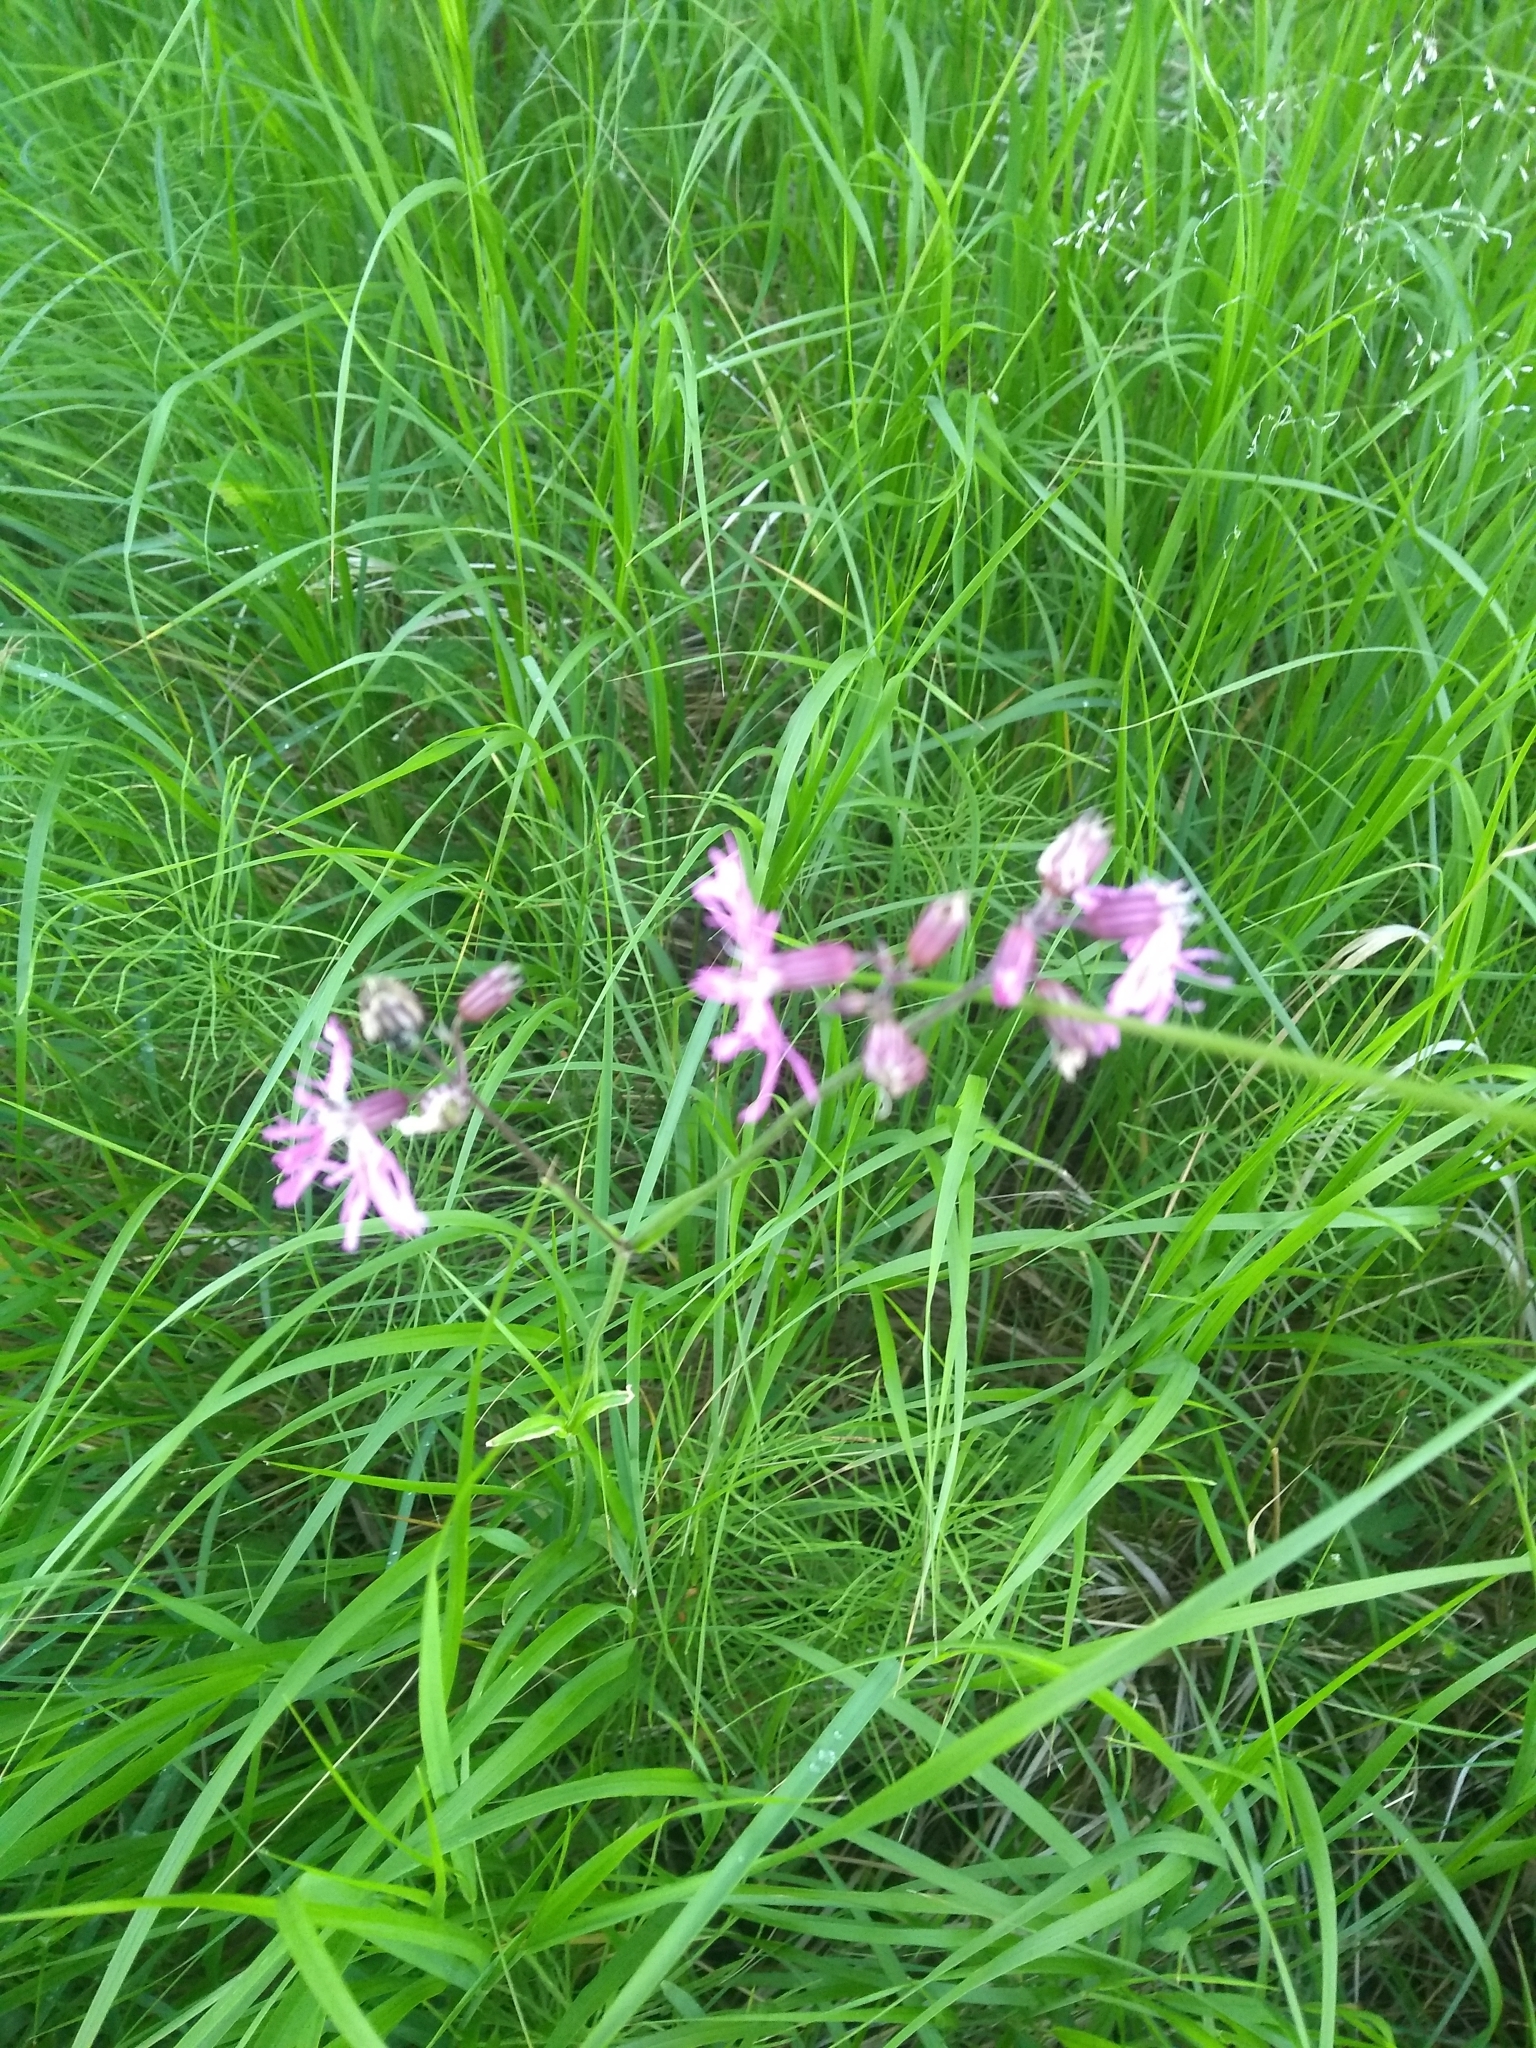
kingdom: Plantae
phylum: Tracheophyta
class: Magnoliopsida
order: Caryophyllales
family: Caryophyllaceae
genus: Silene
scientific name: Silene flos-cuculi
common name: Ragged-robin
